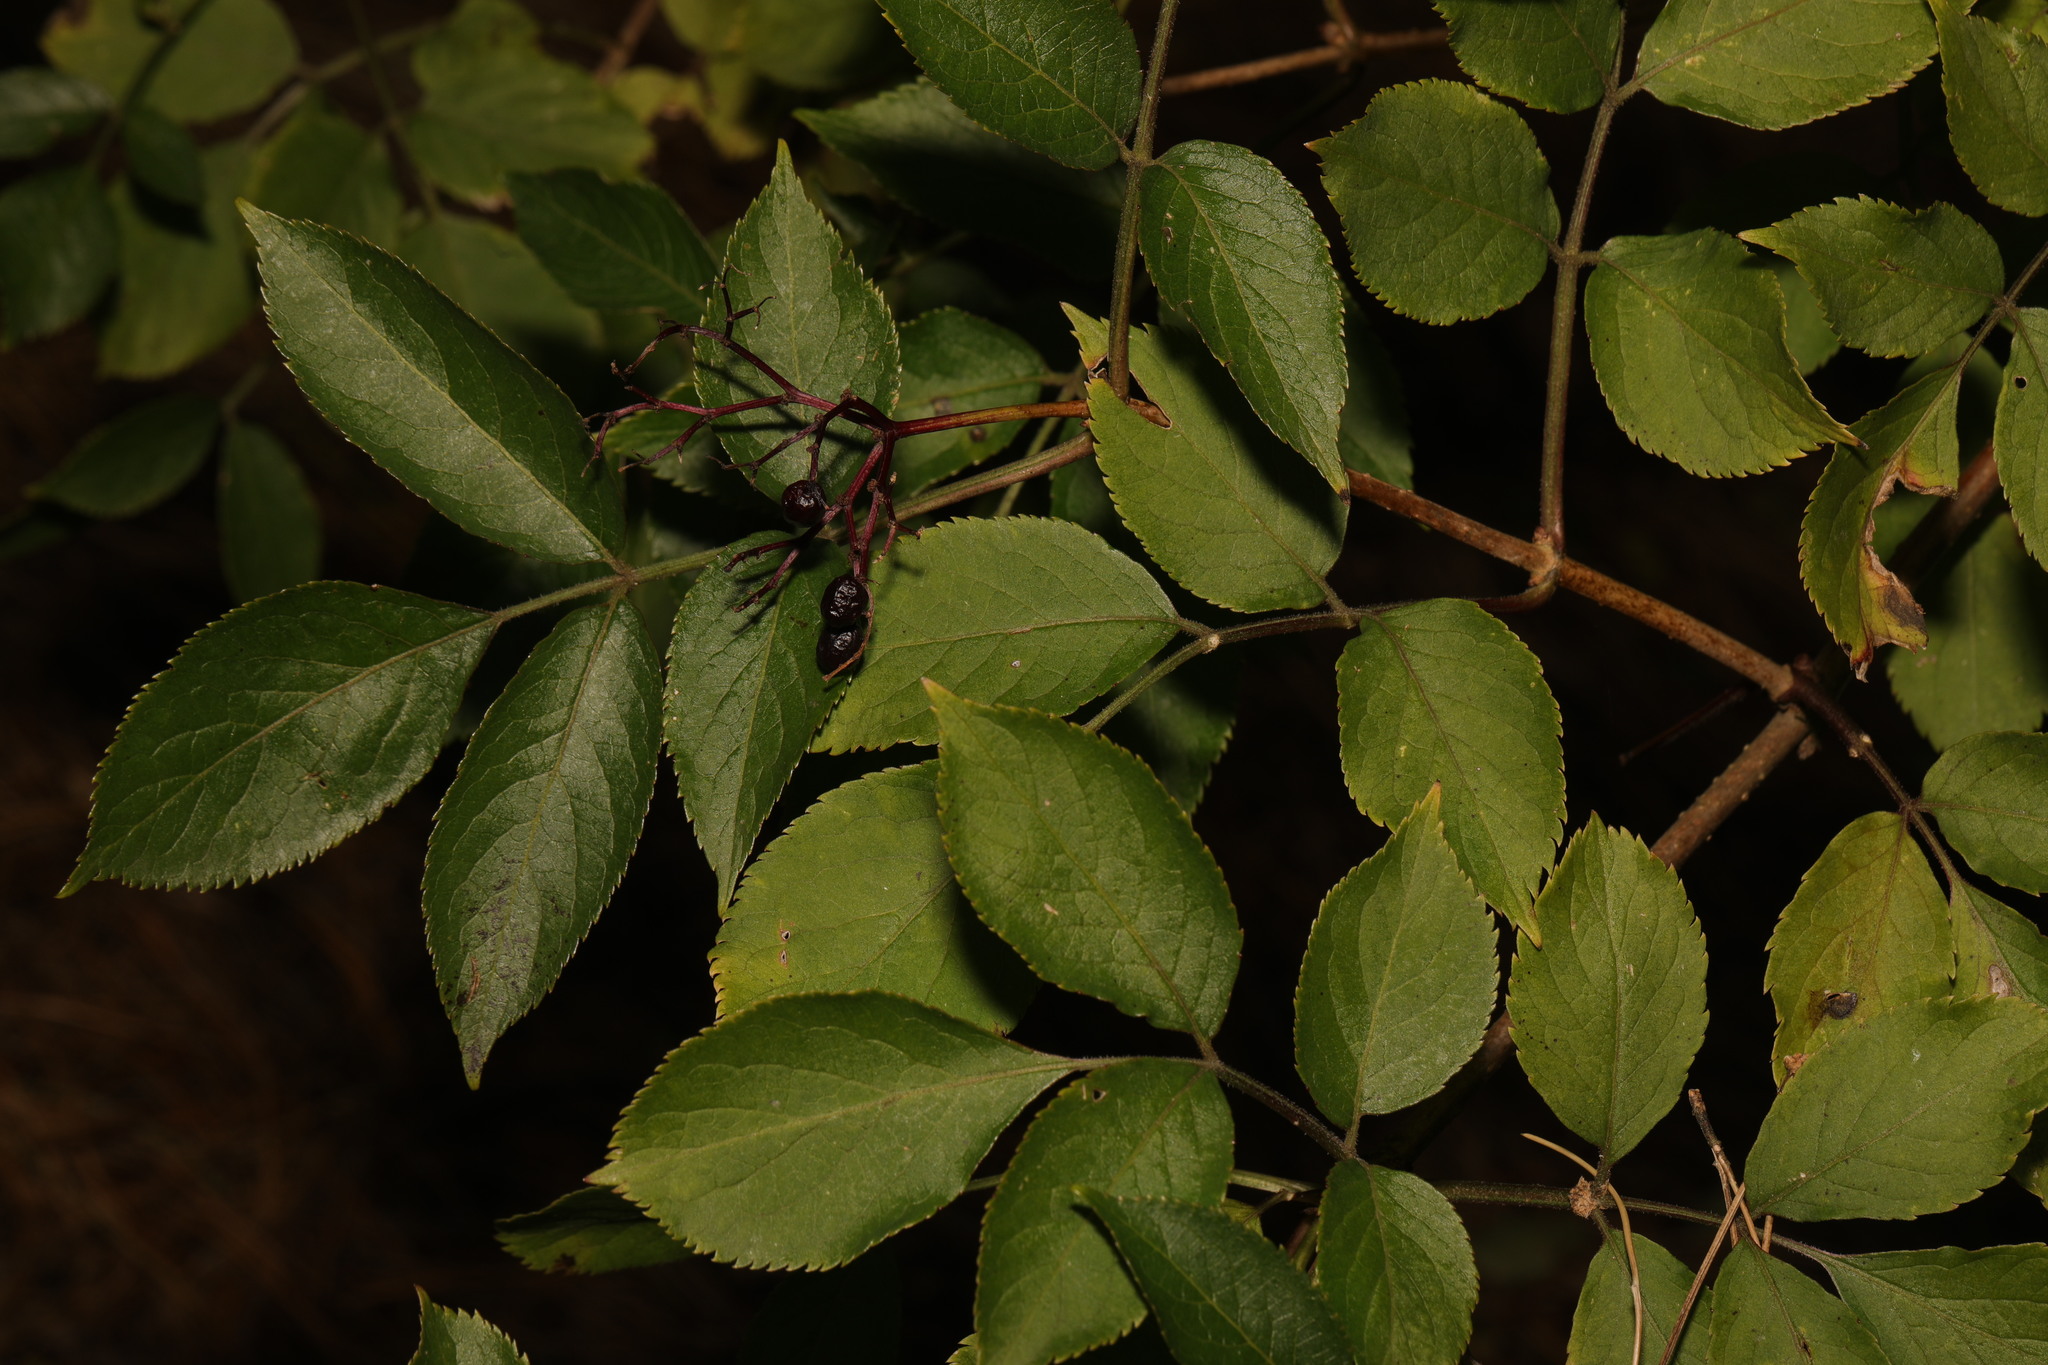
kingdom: Plantae
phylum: Tracheophyta
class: Magnoliopsida
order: Dipsacales
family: Viburnaceae
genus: Sambucus
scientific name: Sambucus nigra
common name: Elder
